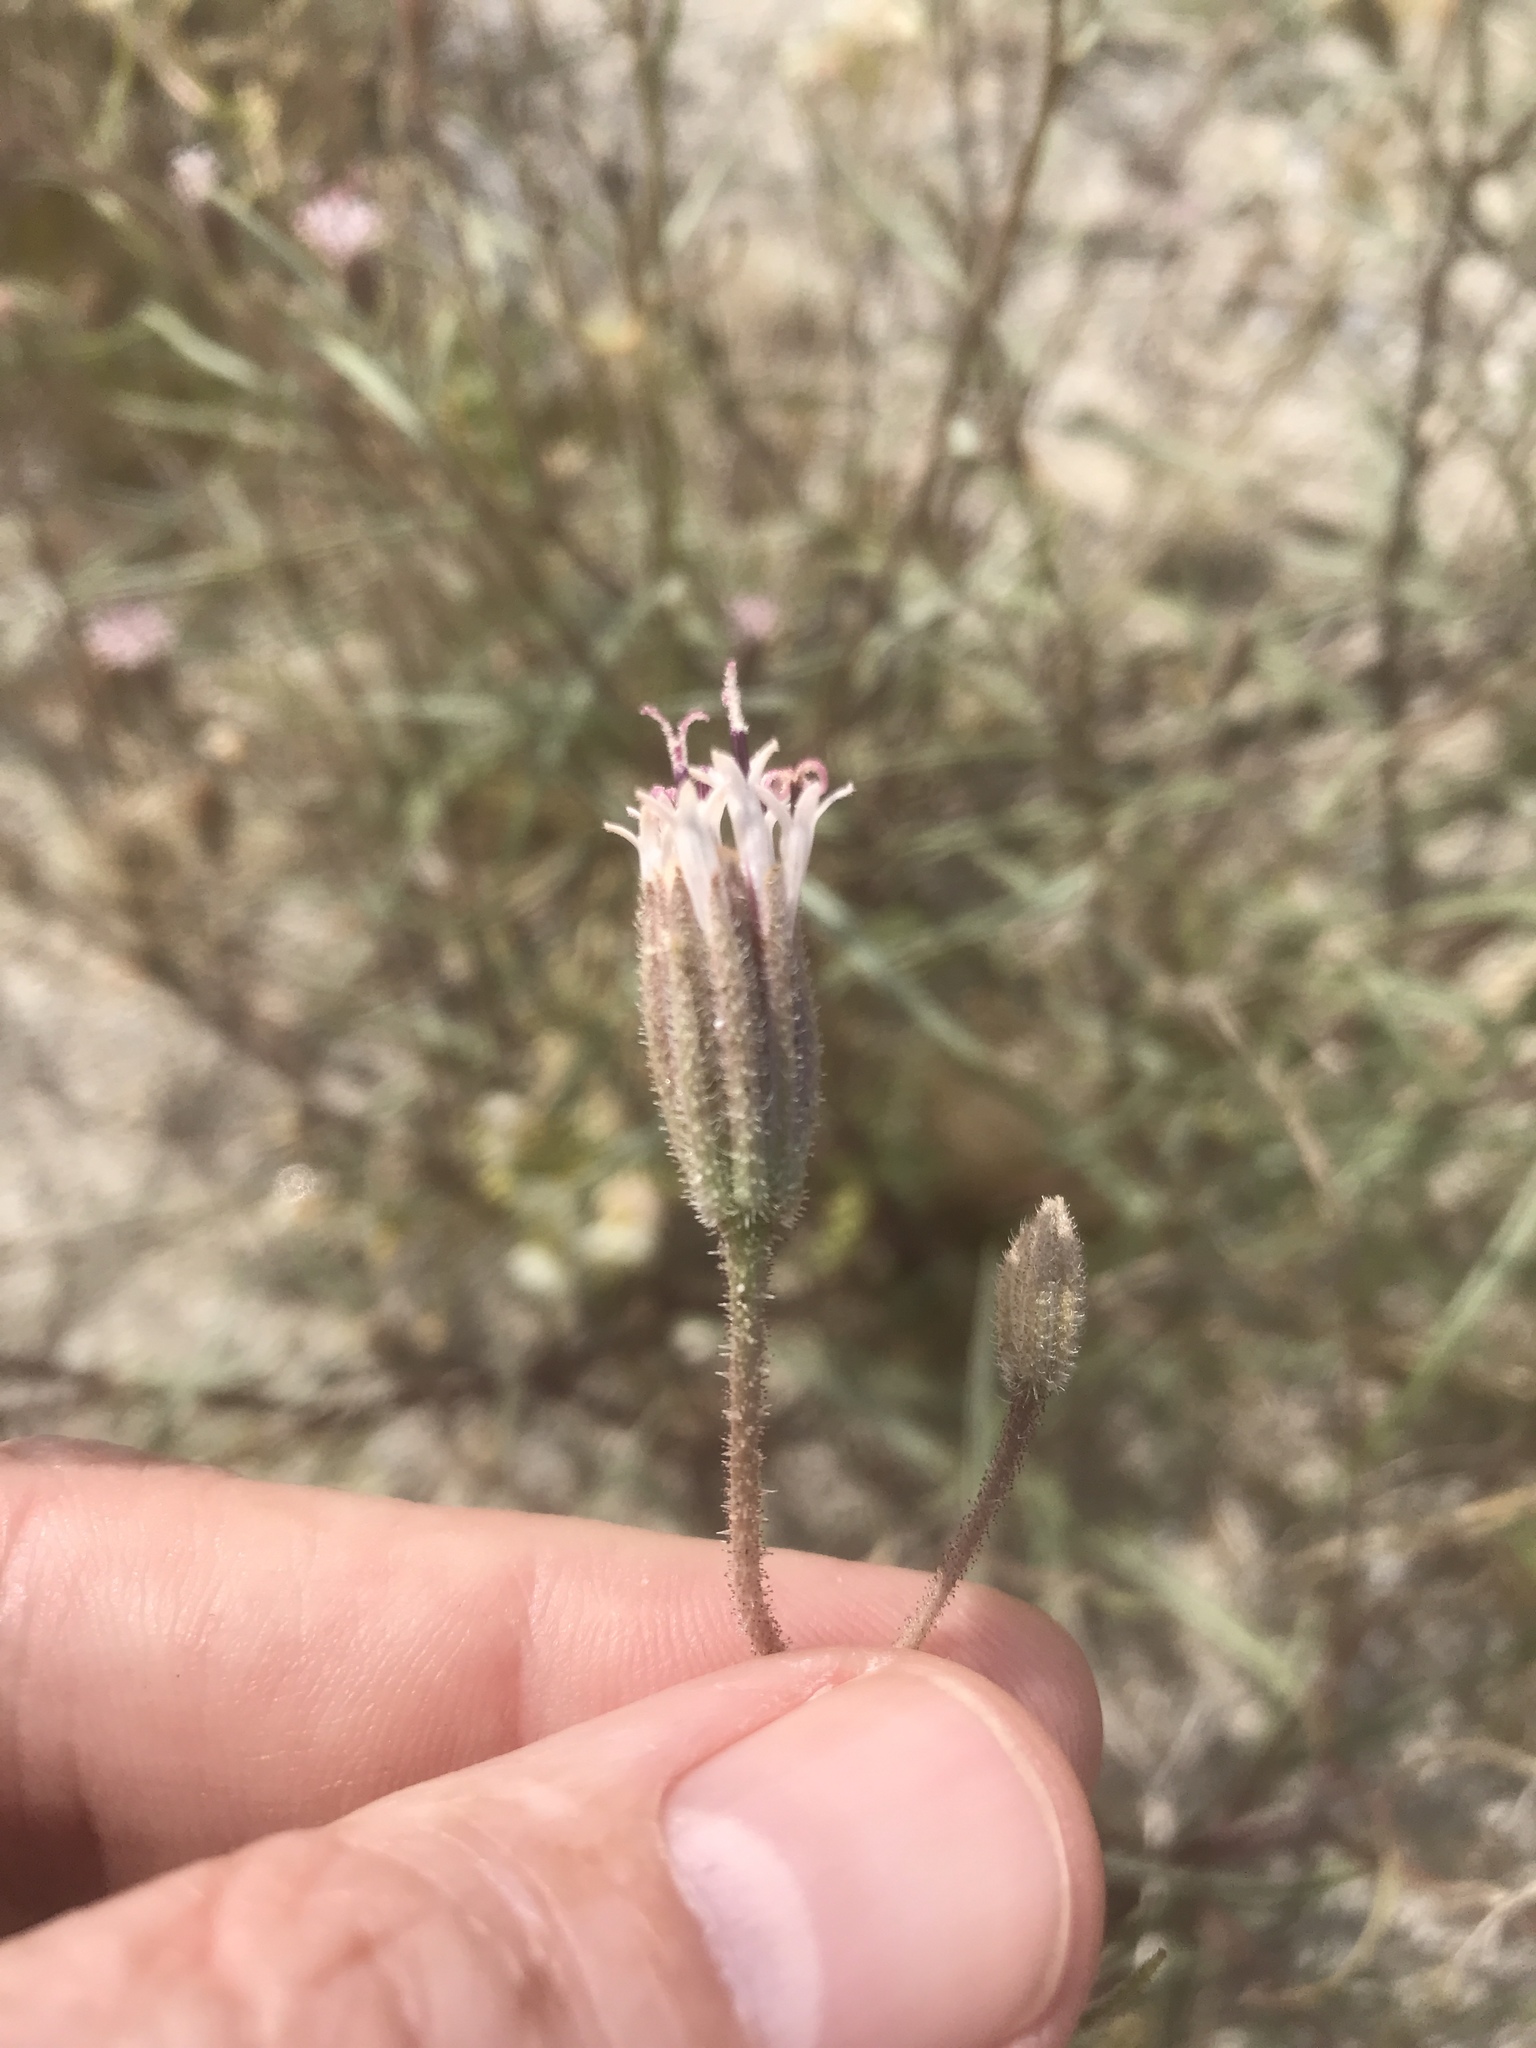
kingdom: Plantae
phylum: Tracheophyta
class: Magnoliopsida
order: Asterales
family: Asteraceae
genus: Palafoxia
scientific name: Palafoxia arida
